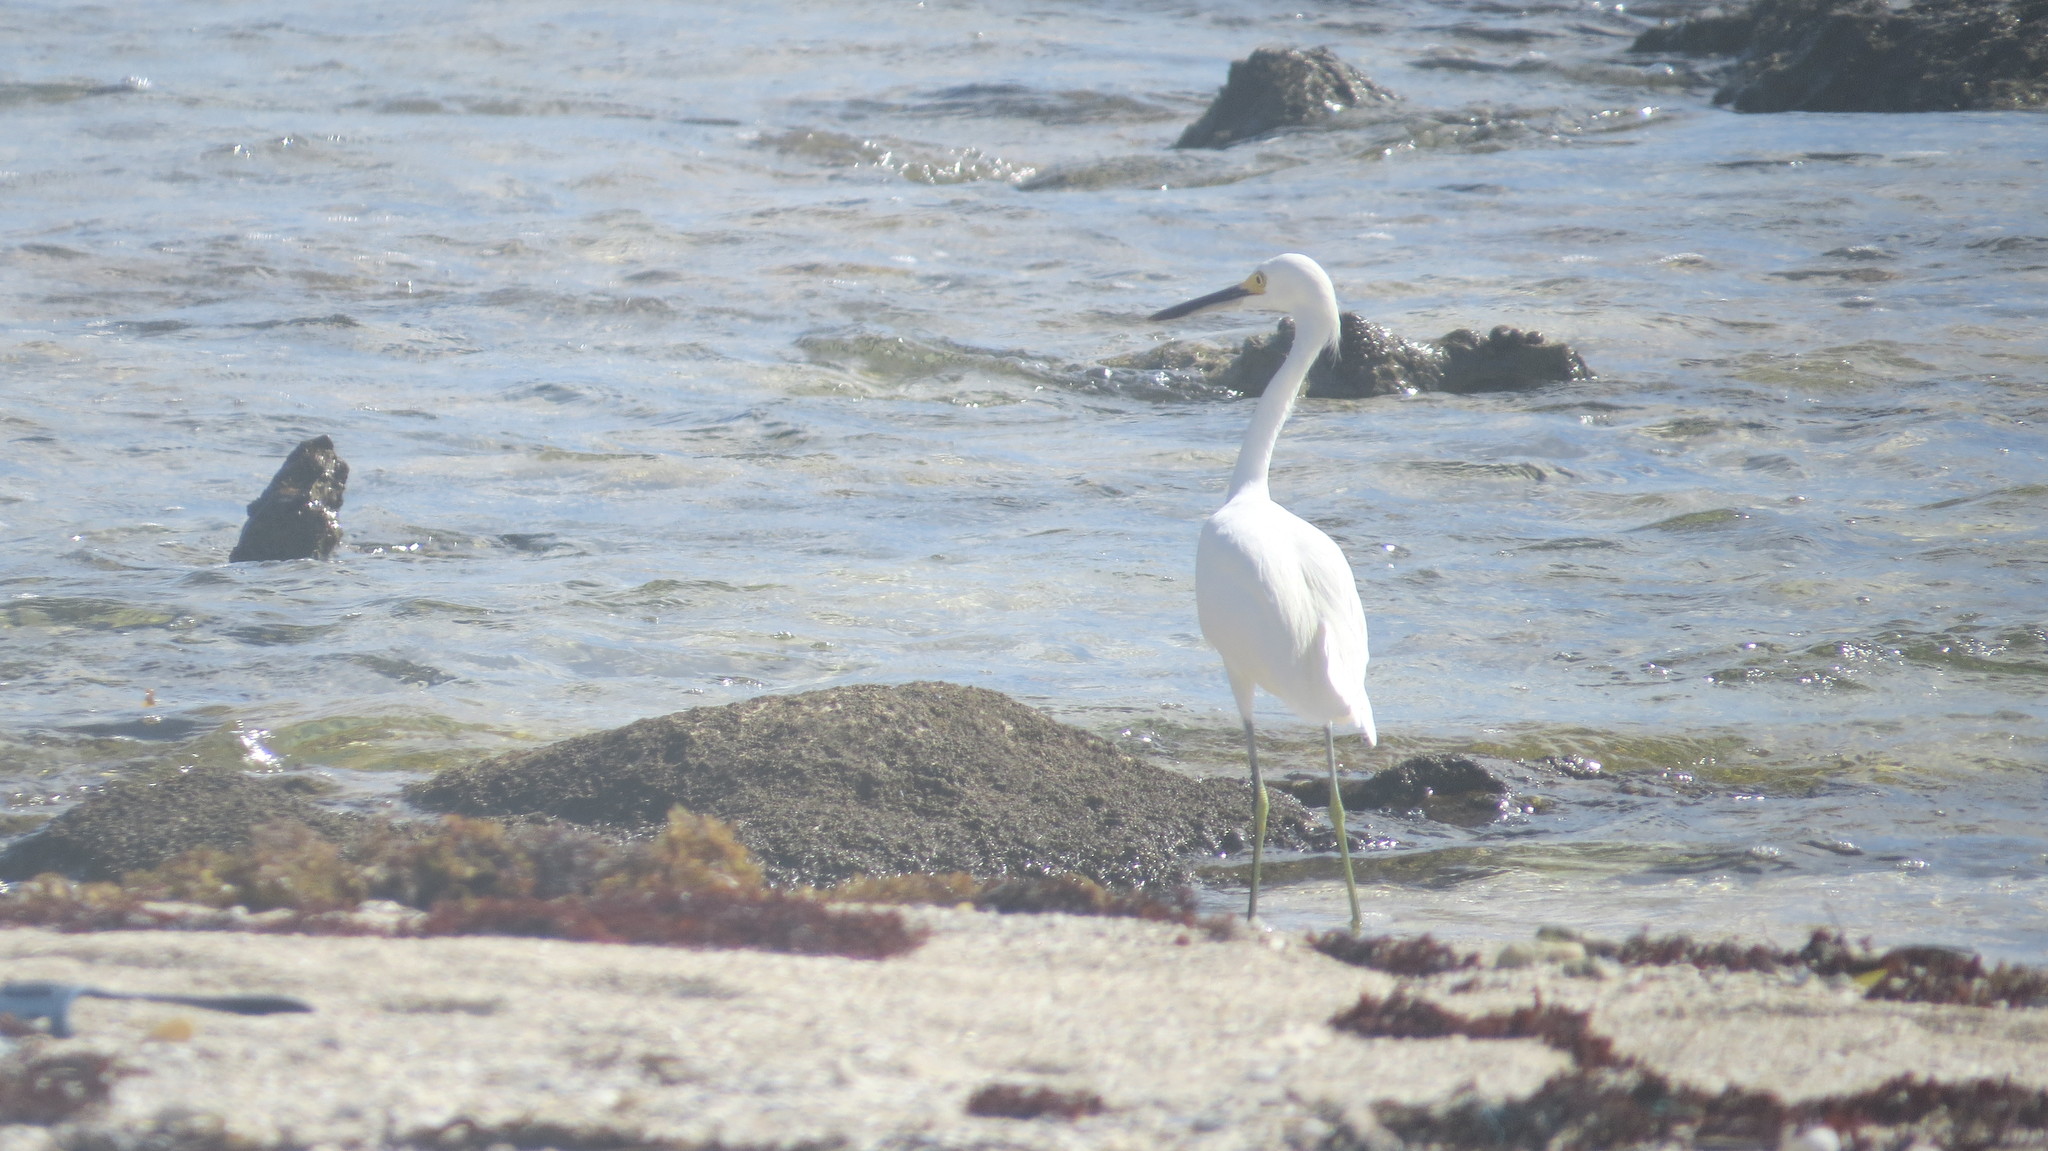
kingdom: Animalia
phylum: Chordata
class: Aves
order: Pelecaniformes
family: Ardeidae
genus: Egretta
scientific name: Egretta thula
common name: Snowy egret
